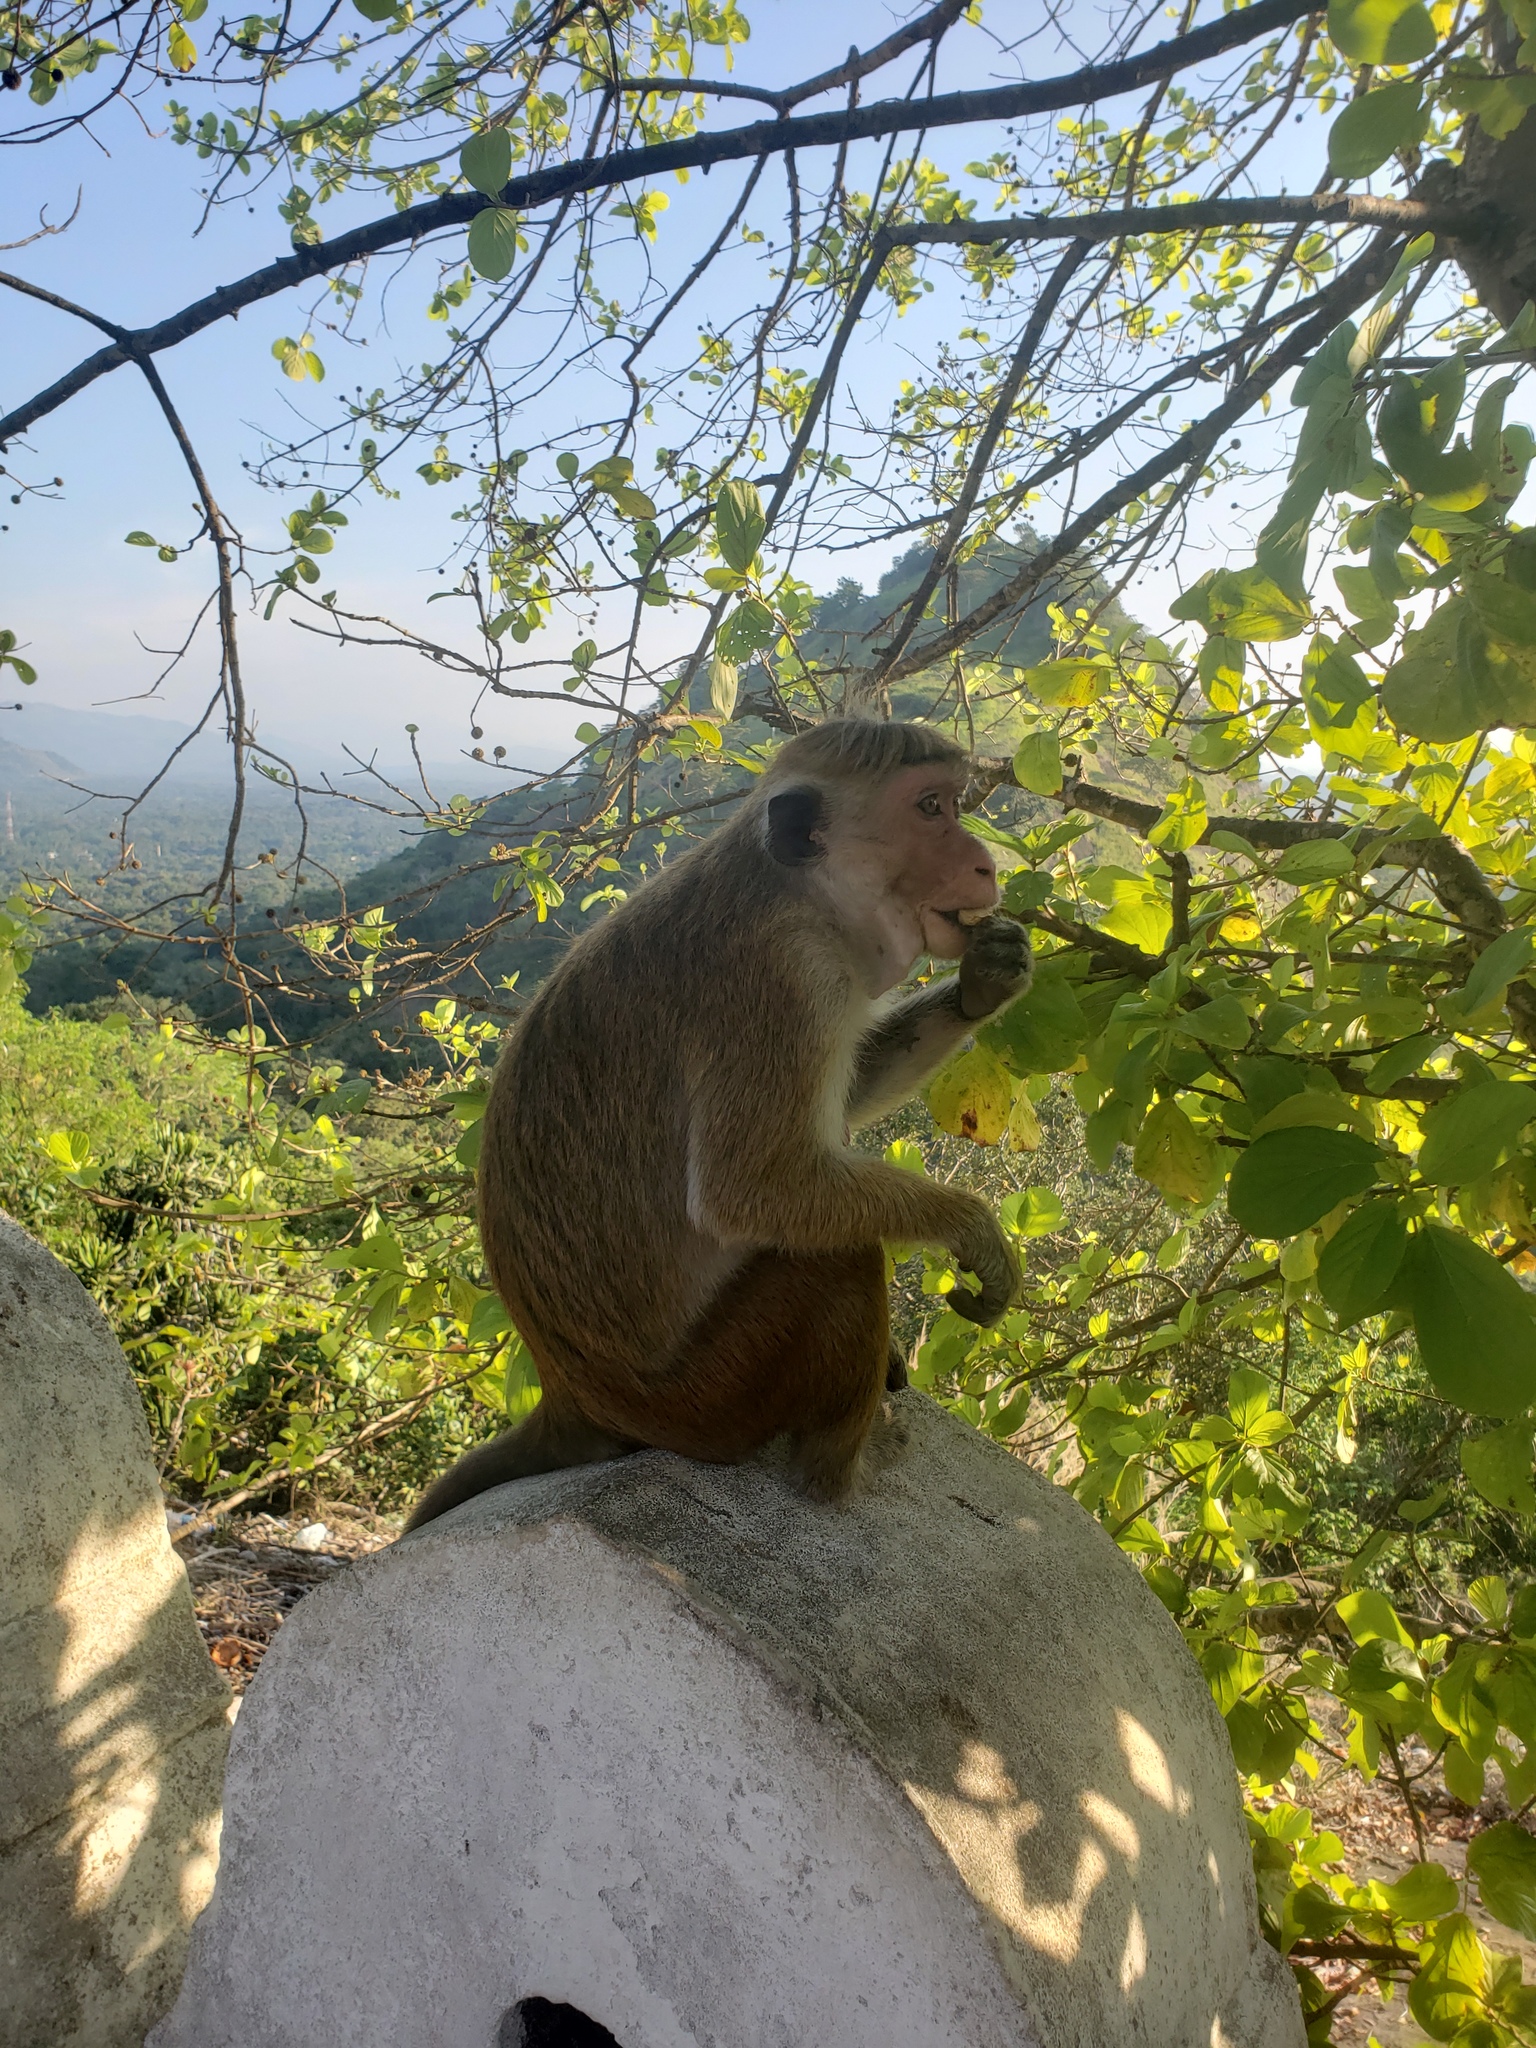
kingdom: Animalia
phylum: Chordata
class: Mammalia
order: Primates
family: Cercopithecidae
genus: Macaca
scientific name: Macaca sinica
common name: Toque macaque
